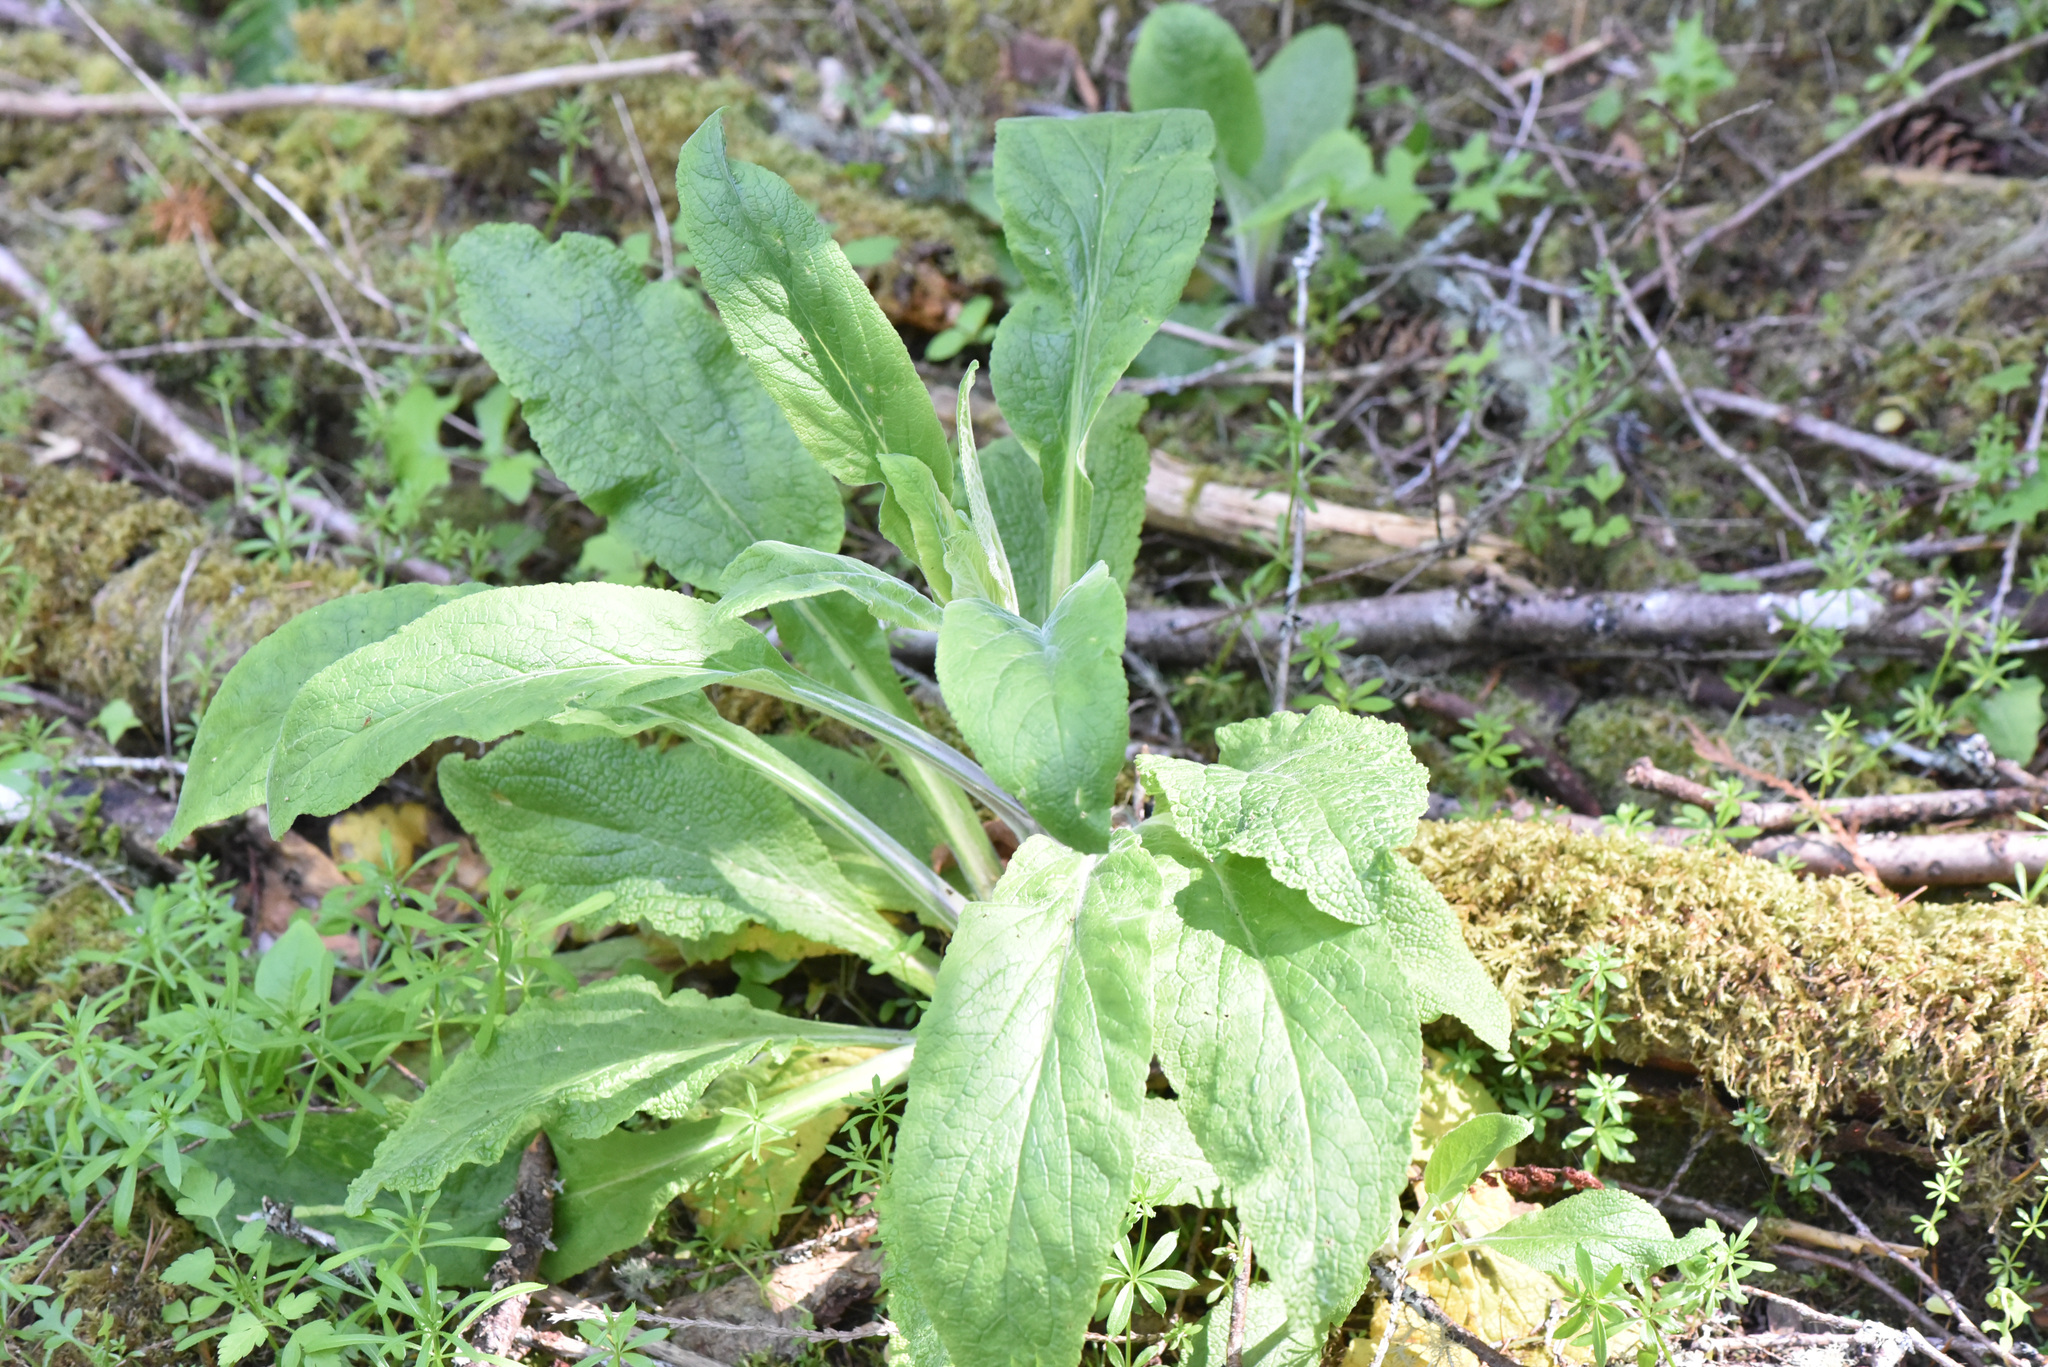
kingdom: Plantae
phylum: Tracheophyta
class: Magnoliopsida
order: Lamiales
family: Plantaginaceae
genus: Digitalis
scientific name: Digitalis purpurea
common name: Foxglove
